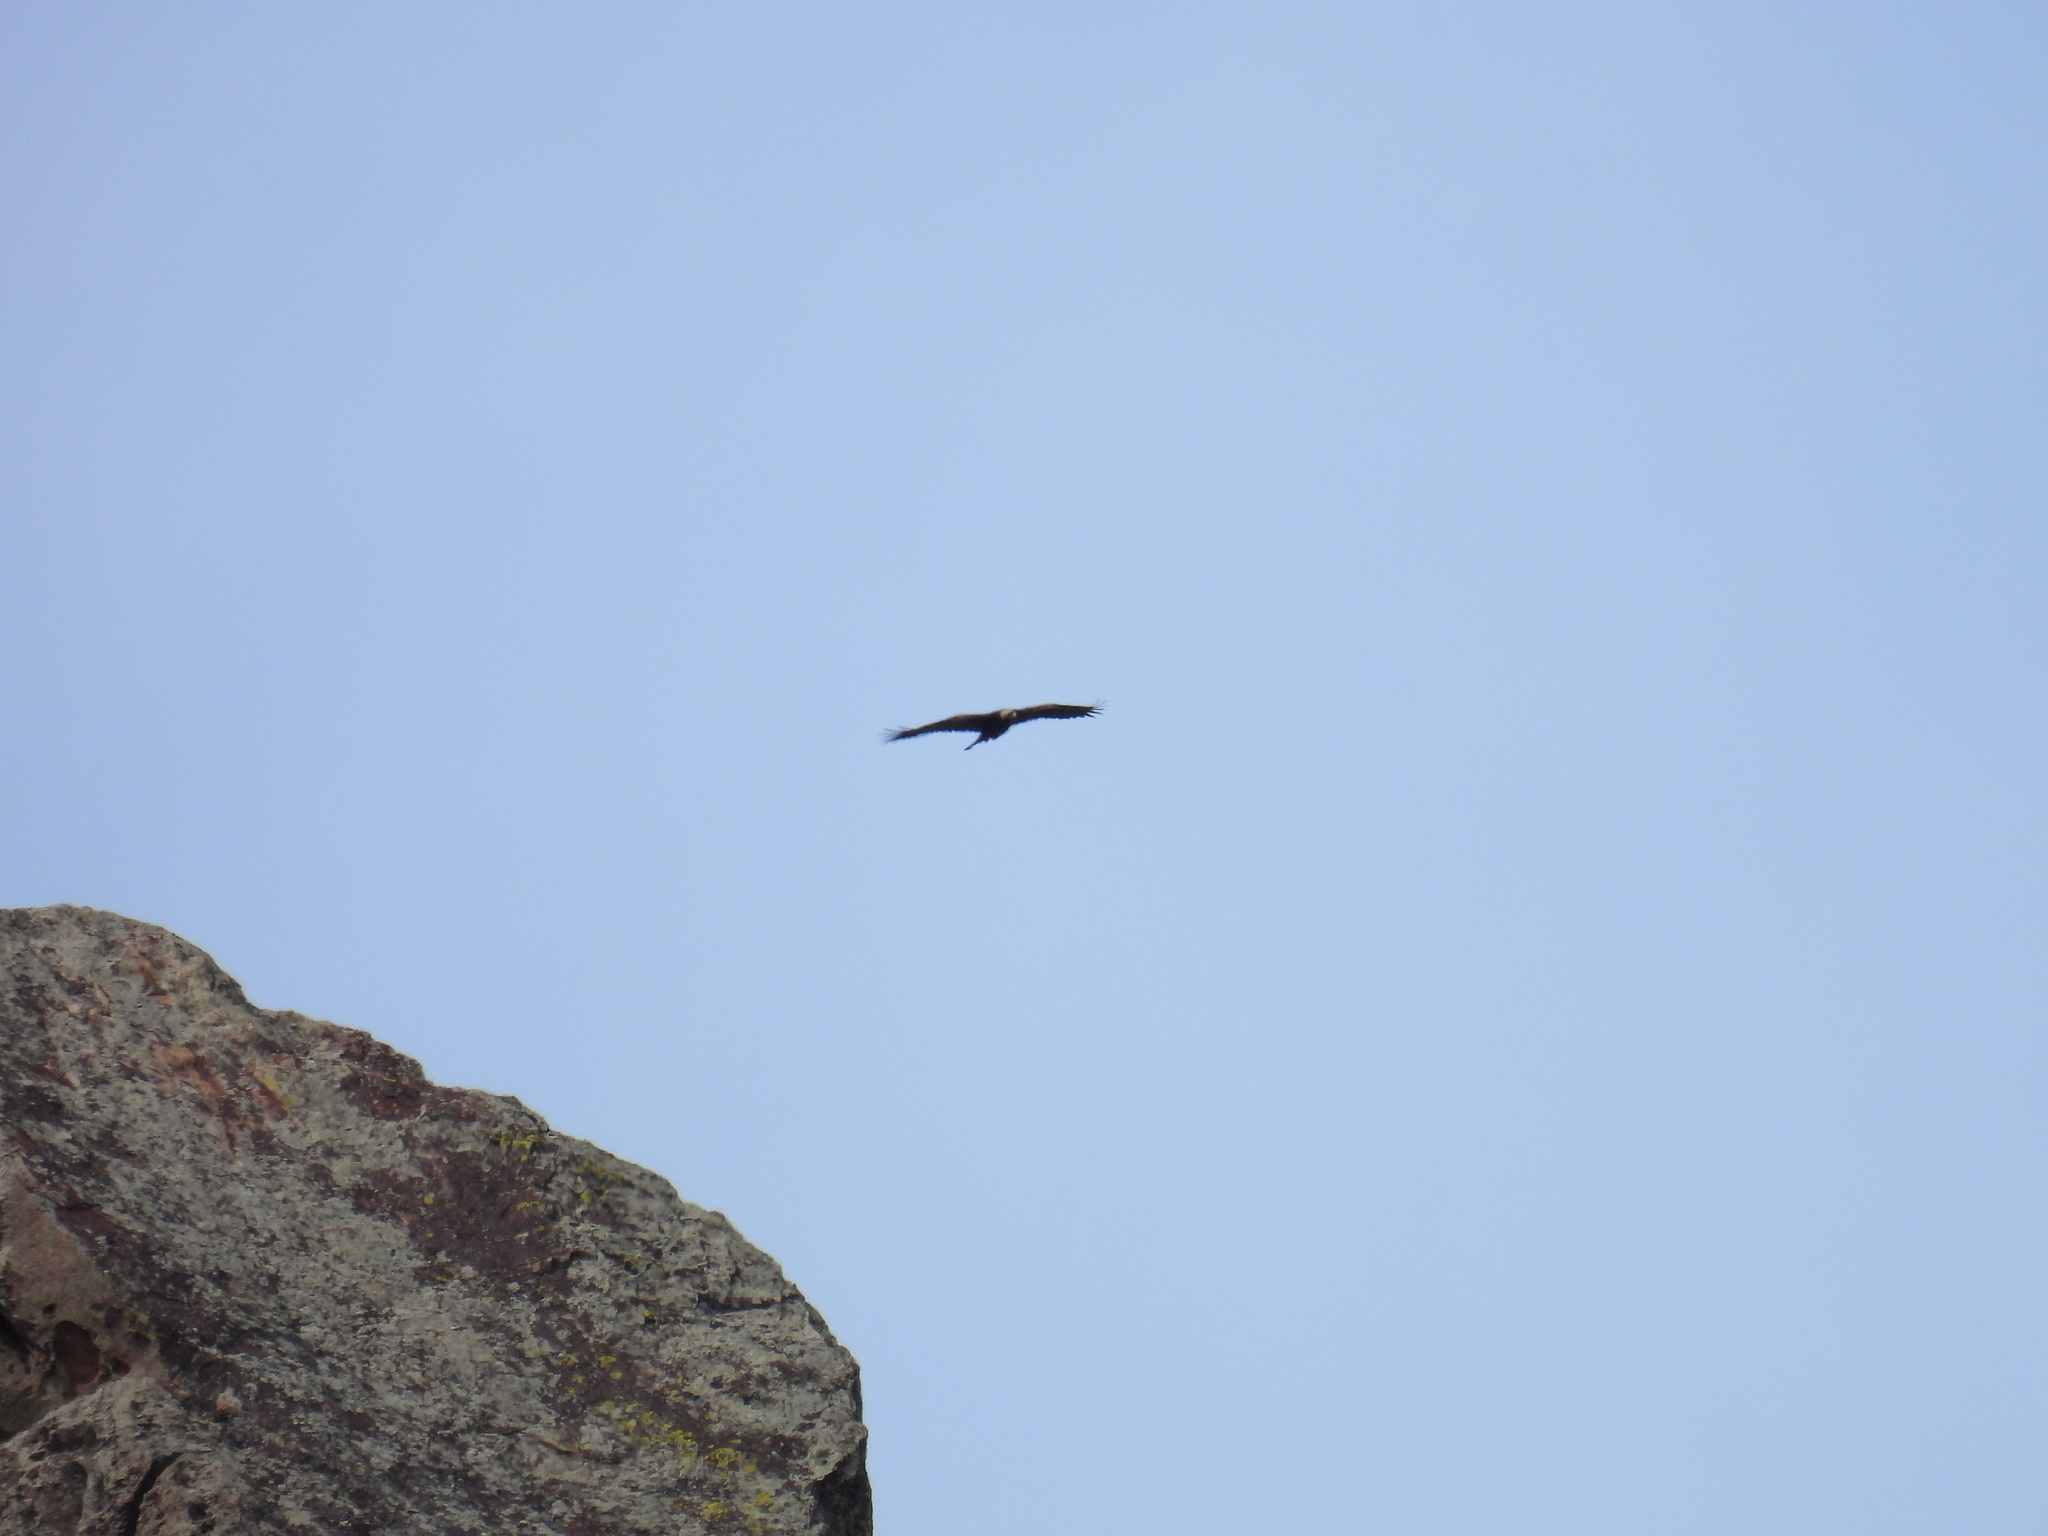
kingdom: Animalia
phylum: Chordata
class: Aves
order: Accipitriformes
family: Accipitridae
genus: Aquila
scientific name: Aquila chrysaetos
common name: Golden eagle
